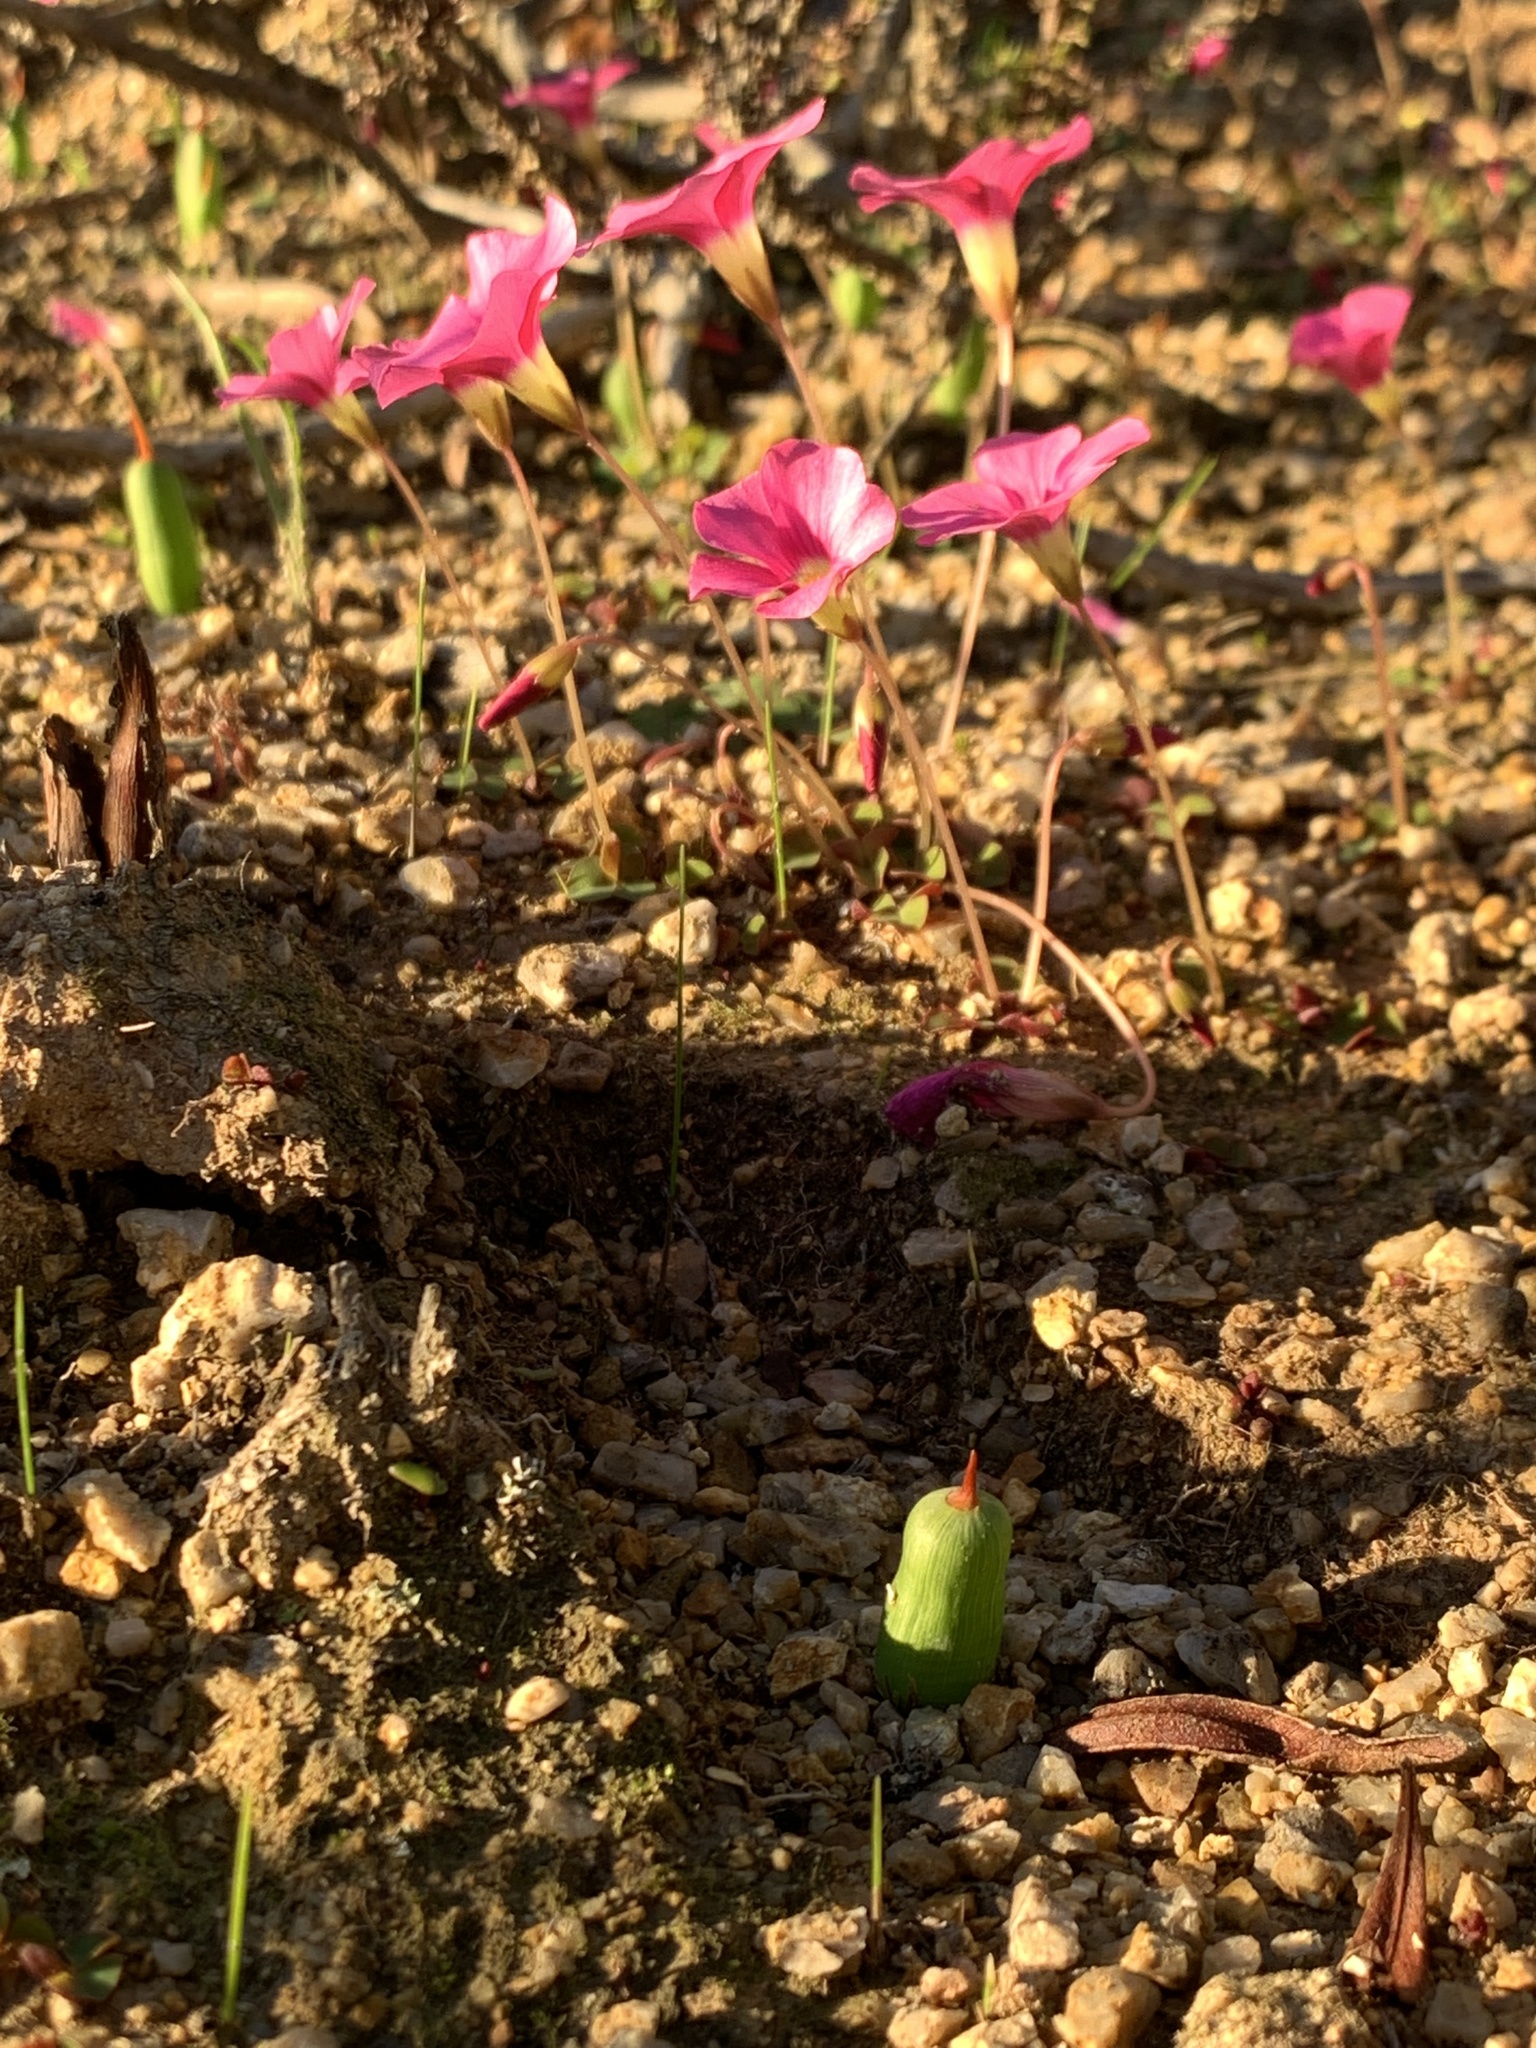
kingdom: Plantae
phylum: Tracheophyta
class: Liliopsida
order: Asparagales
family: Iridaceae
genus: Micranthus
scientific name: Micranthus tubulosus
